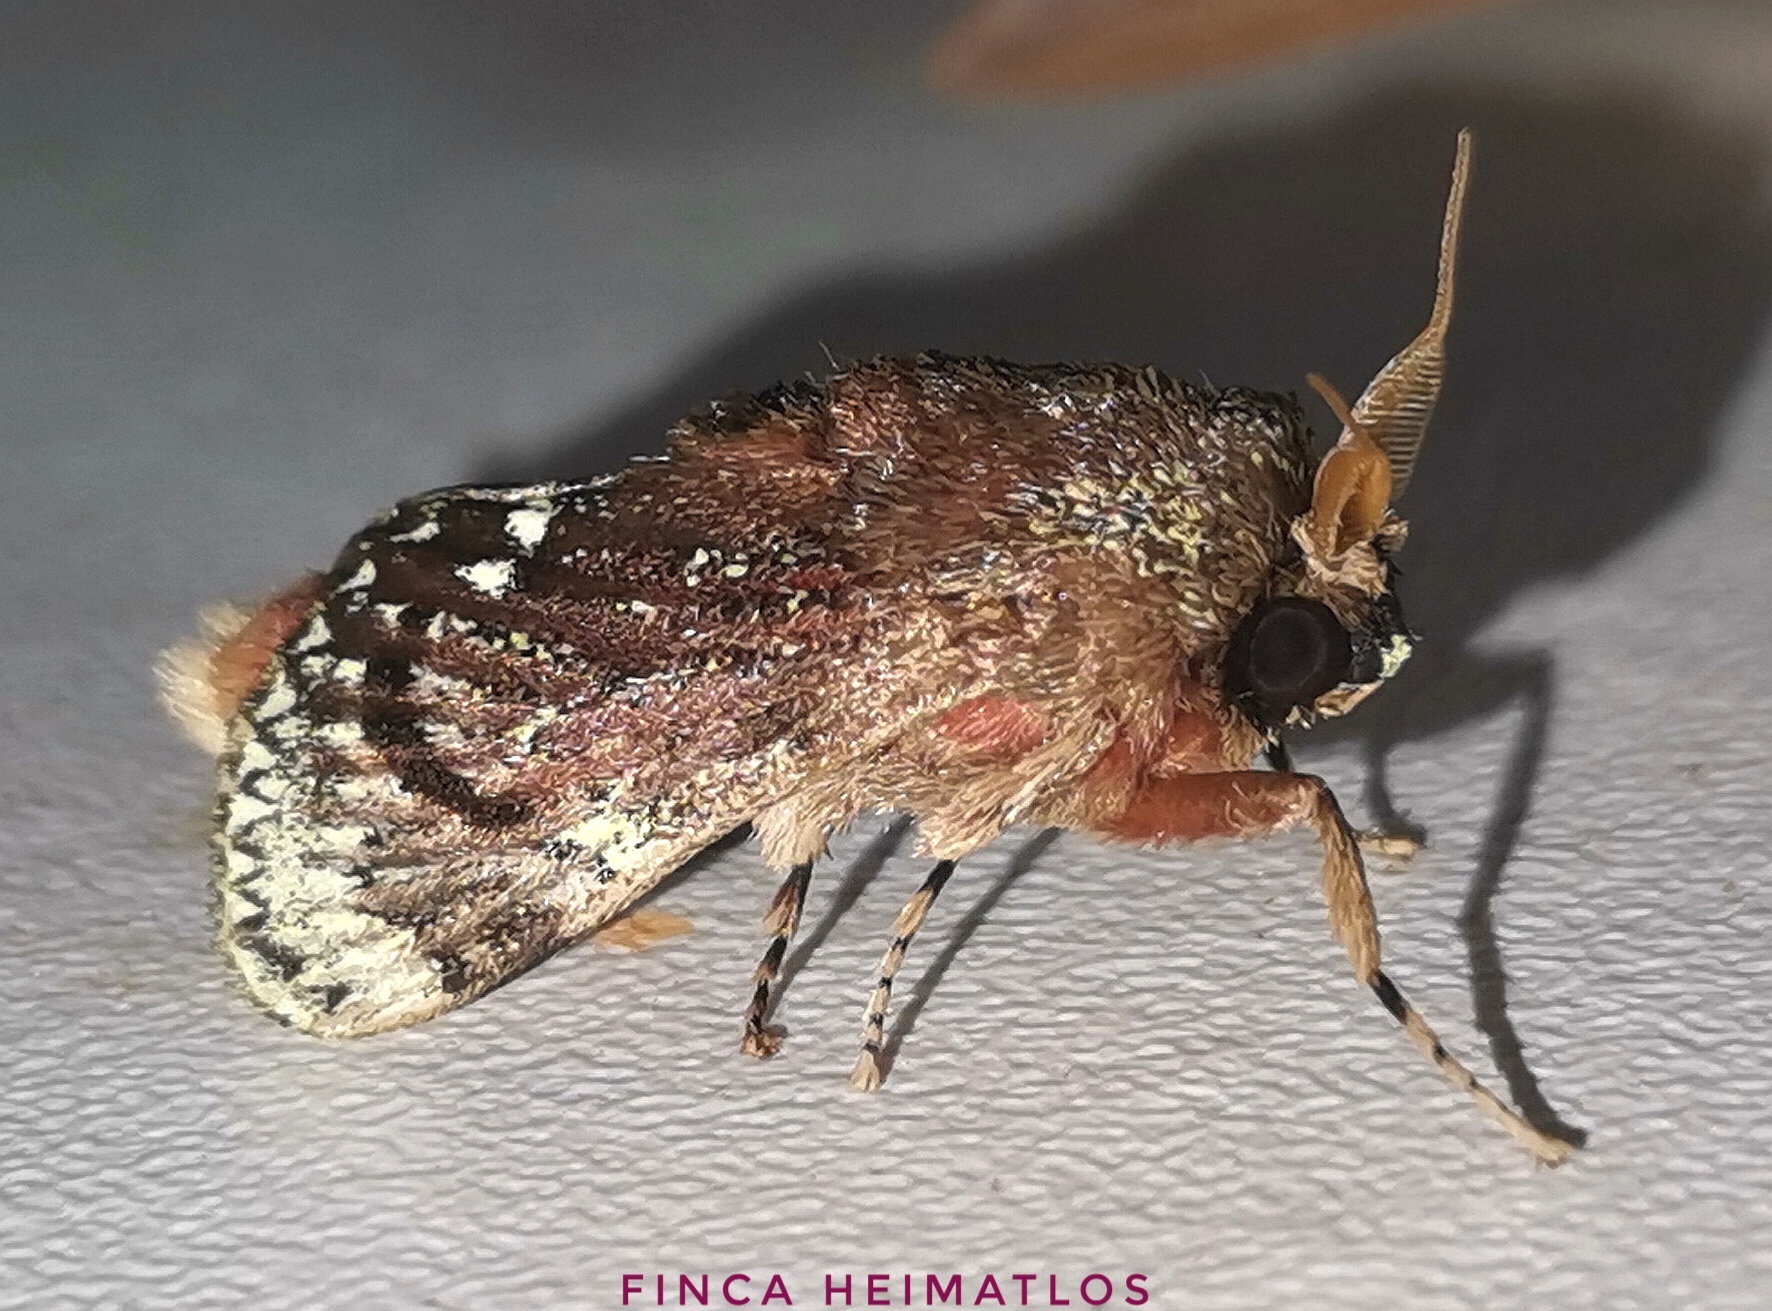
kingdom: Animalia
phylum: Arthropoda
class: Insecta
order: Lepidoptera
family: Aididae
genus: Xenarchus
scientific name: Xenarchus carmen
